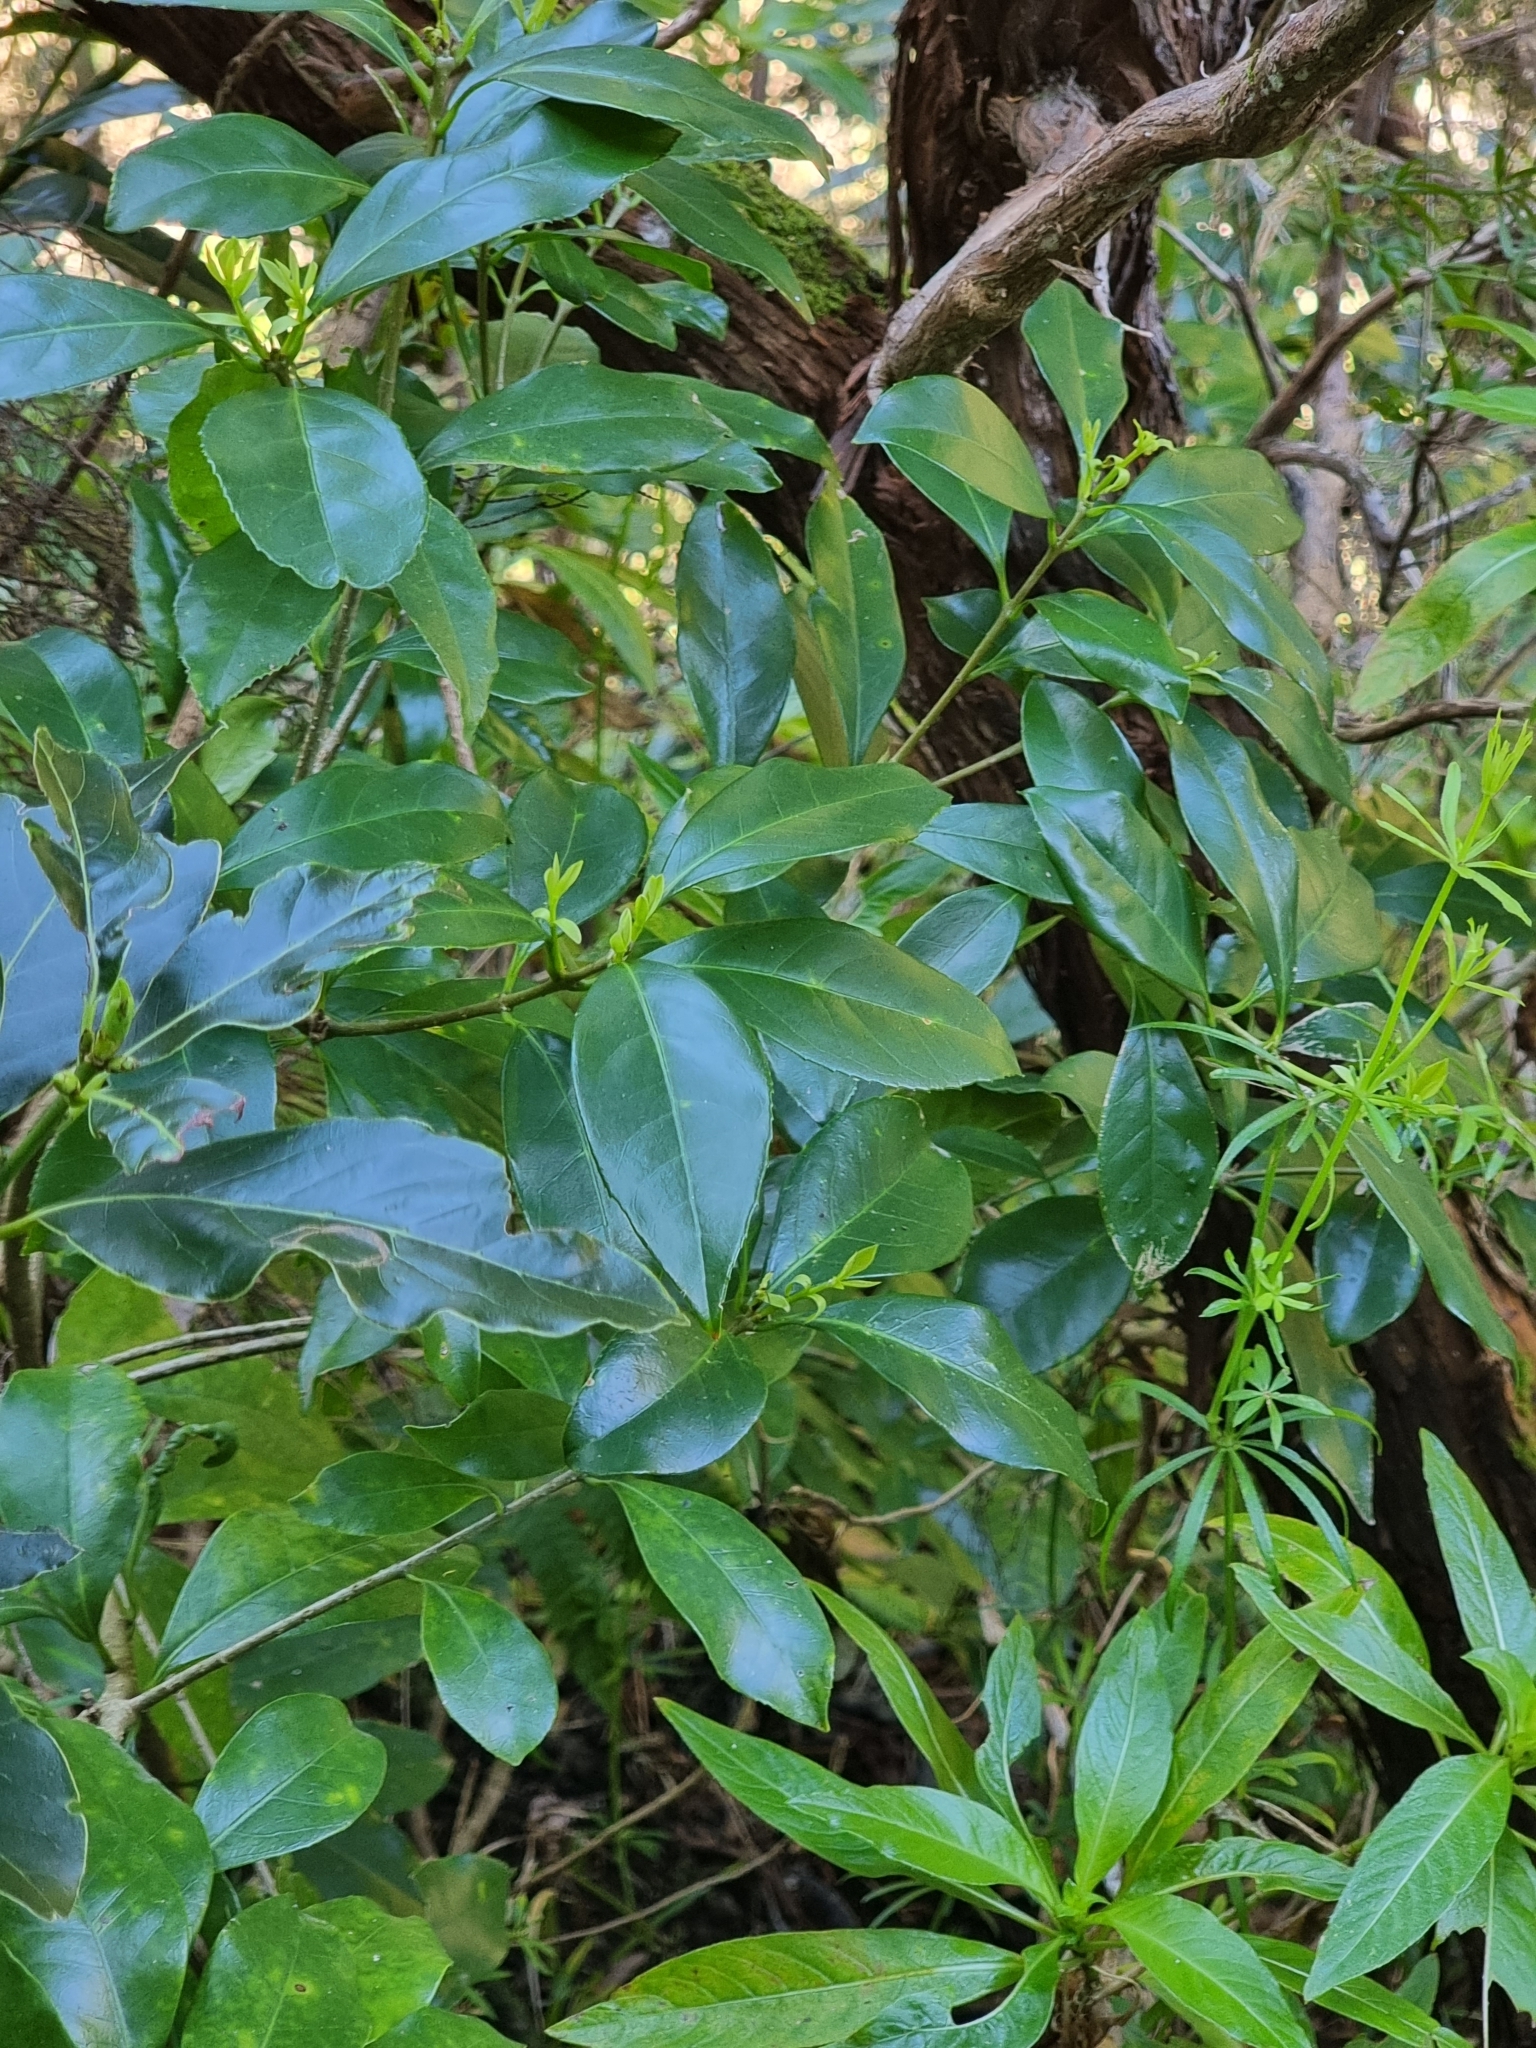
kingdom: Plantae
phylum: Tracheophyta
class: Magnoliopsida
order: Lamiales
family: Oleaceae
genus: Picconia
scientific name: Picconia excelsa
